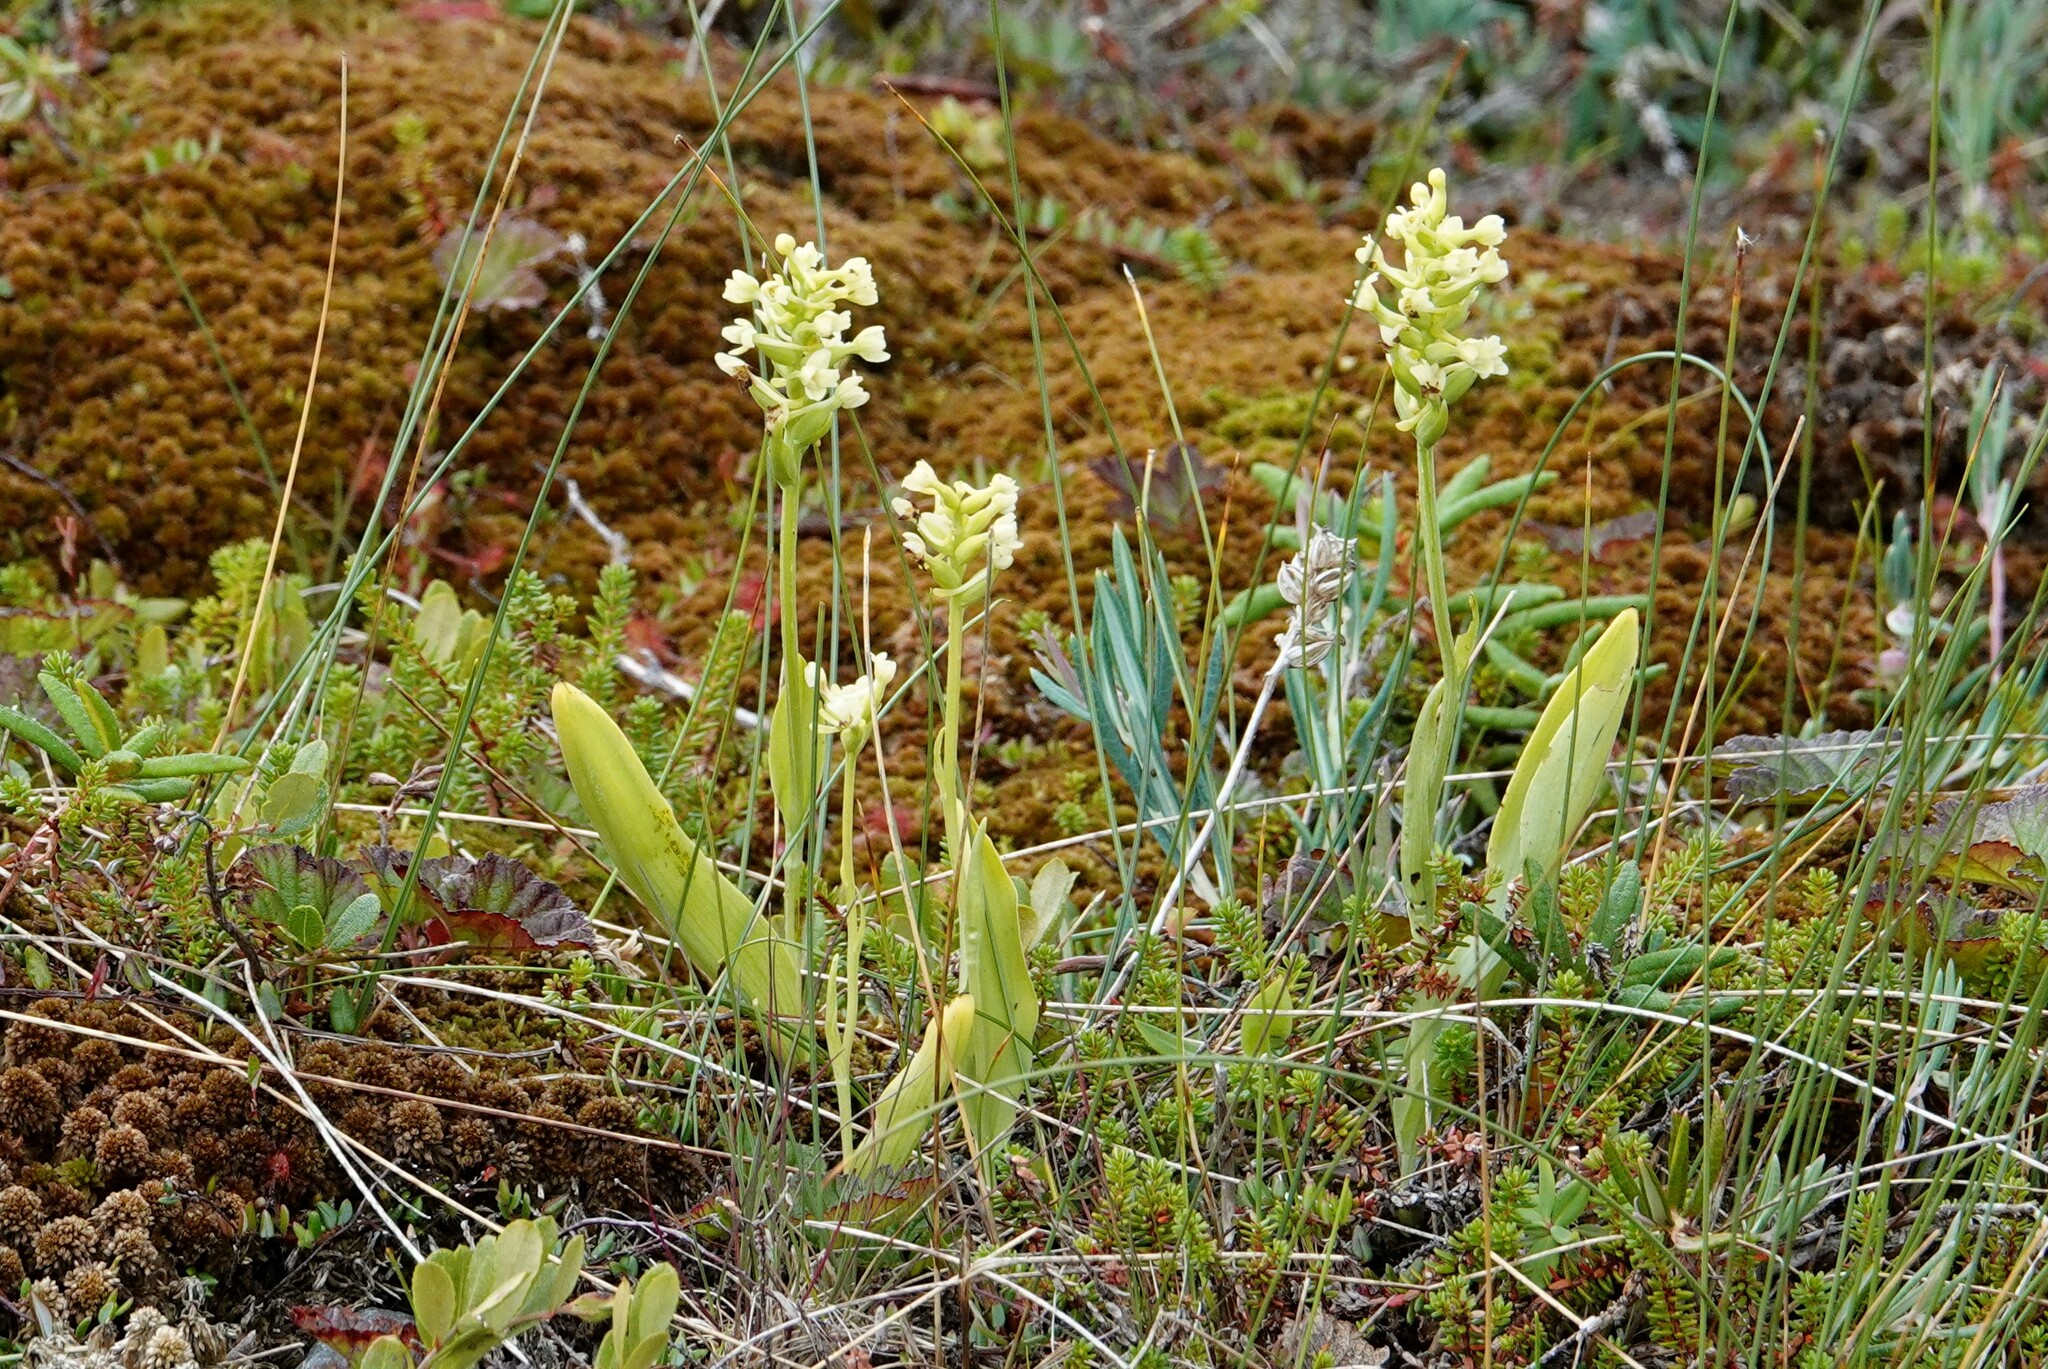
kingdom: Plantae
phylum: Tracheophyta
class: Liliopsida
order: Asparagales
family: Orchidaceae
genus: Platanthera
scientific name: Platanthera clavellata
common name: Club-spur orchid
